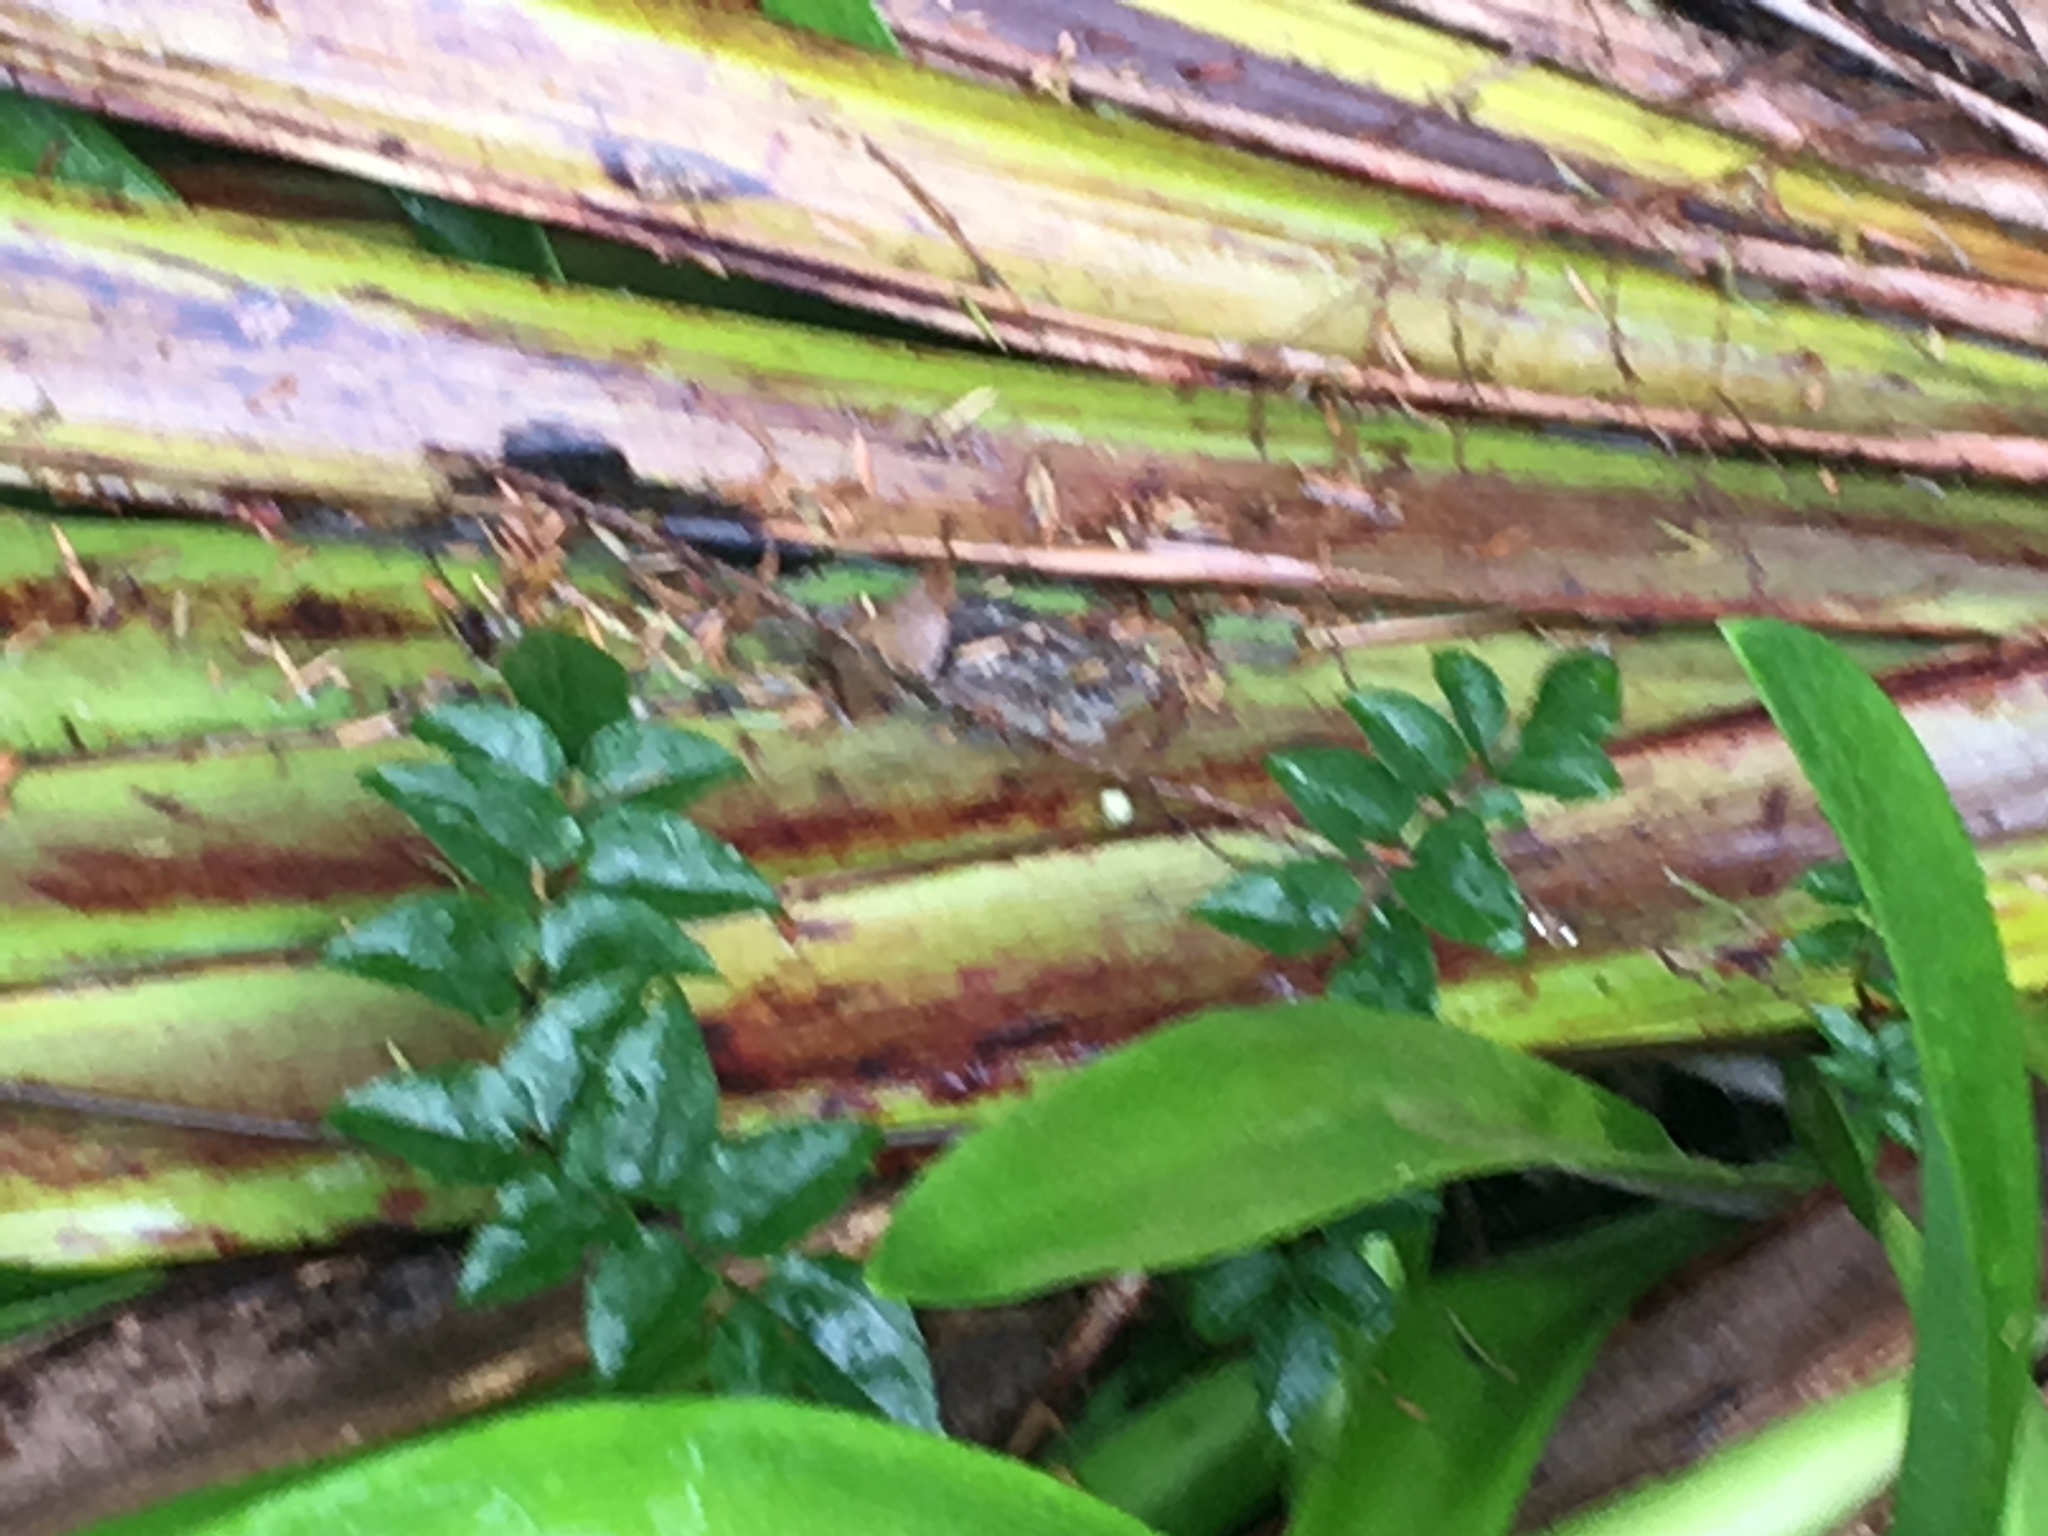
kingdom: Plantae
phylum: Tracheophyta
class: Magnoliopsida
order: Lamiales
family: Oleaceae
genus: Jasminum
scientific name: Jasminum polyanthum
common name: Pink jasmine
